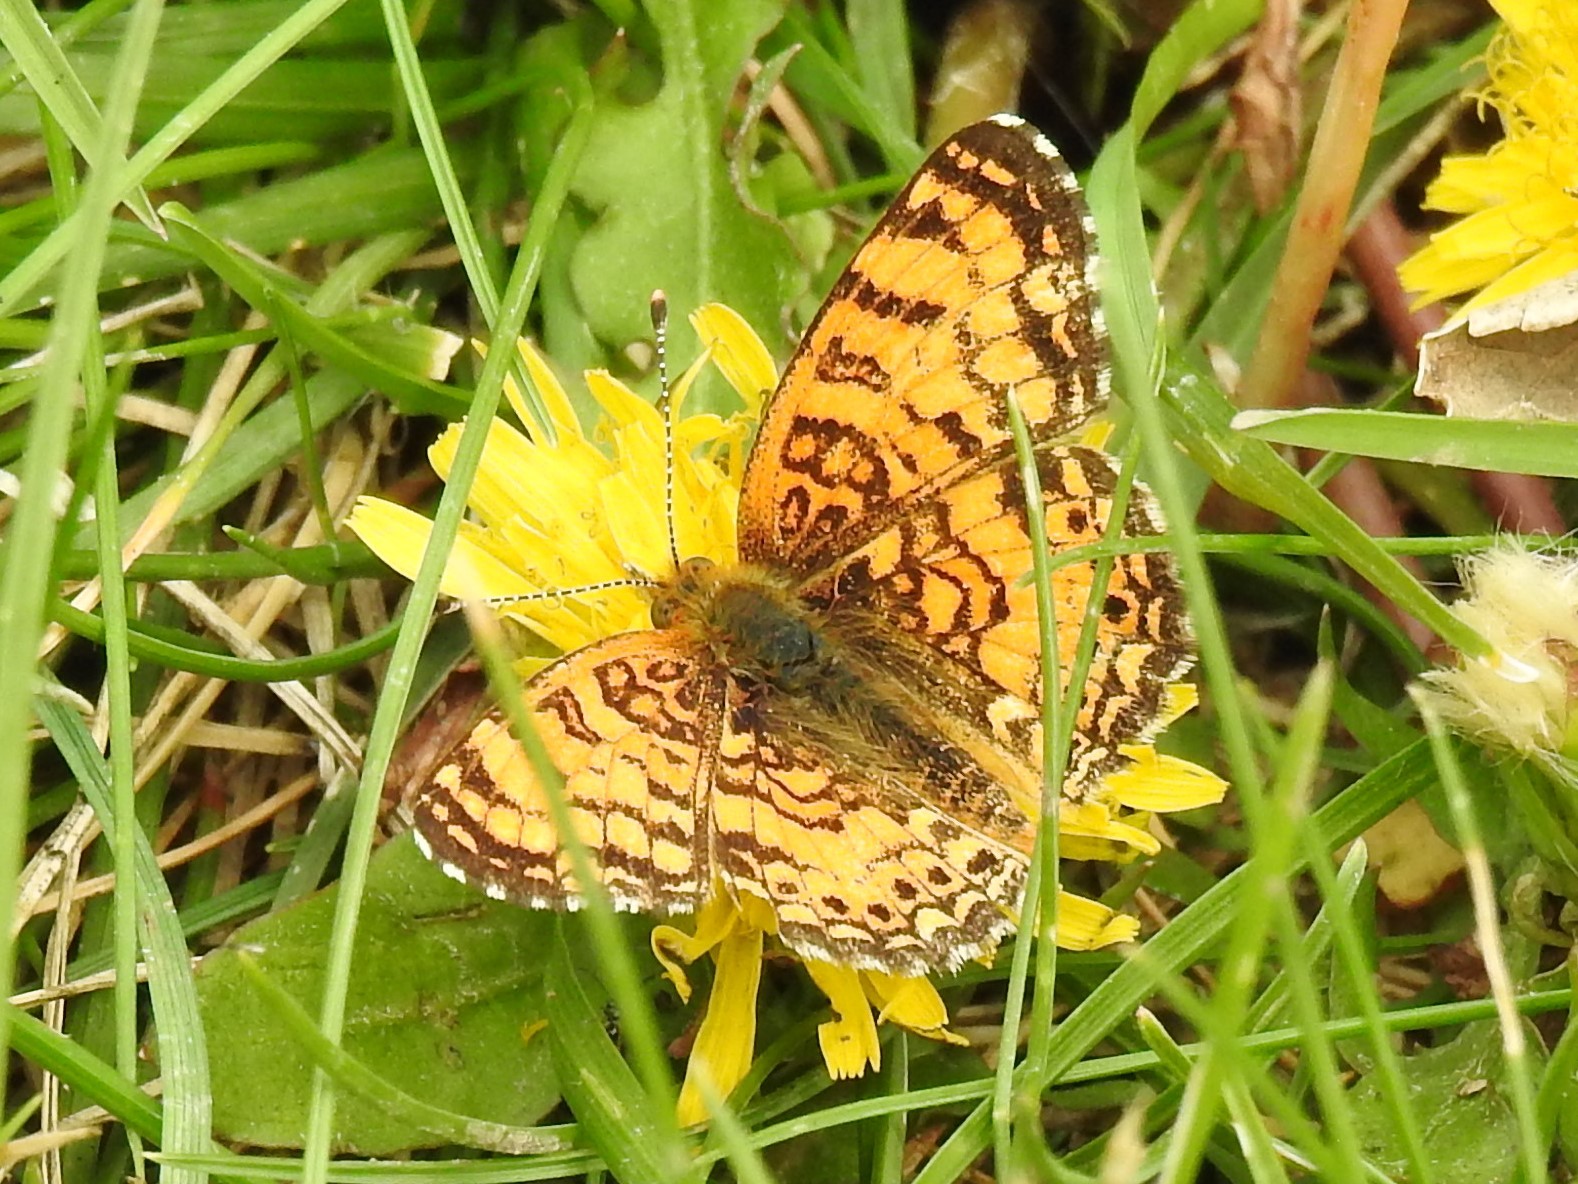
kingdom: Animalia
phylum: Arthropoda
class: Insecta
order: Lepidoptera
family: Nymphalidae
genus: Eresia
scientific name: Eresia aveyrona
